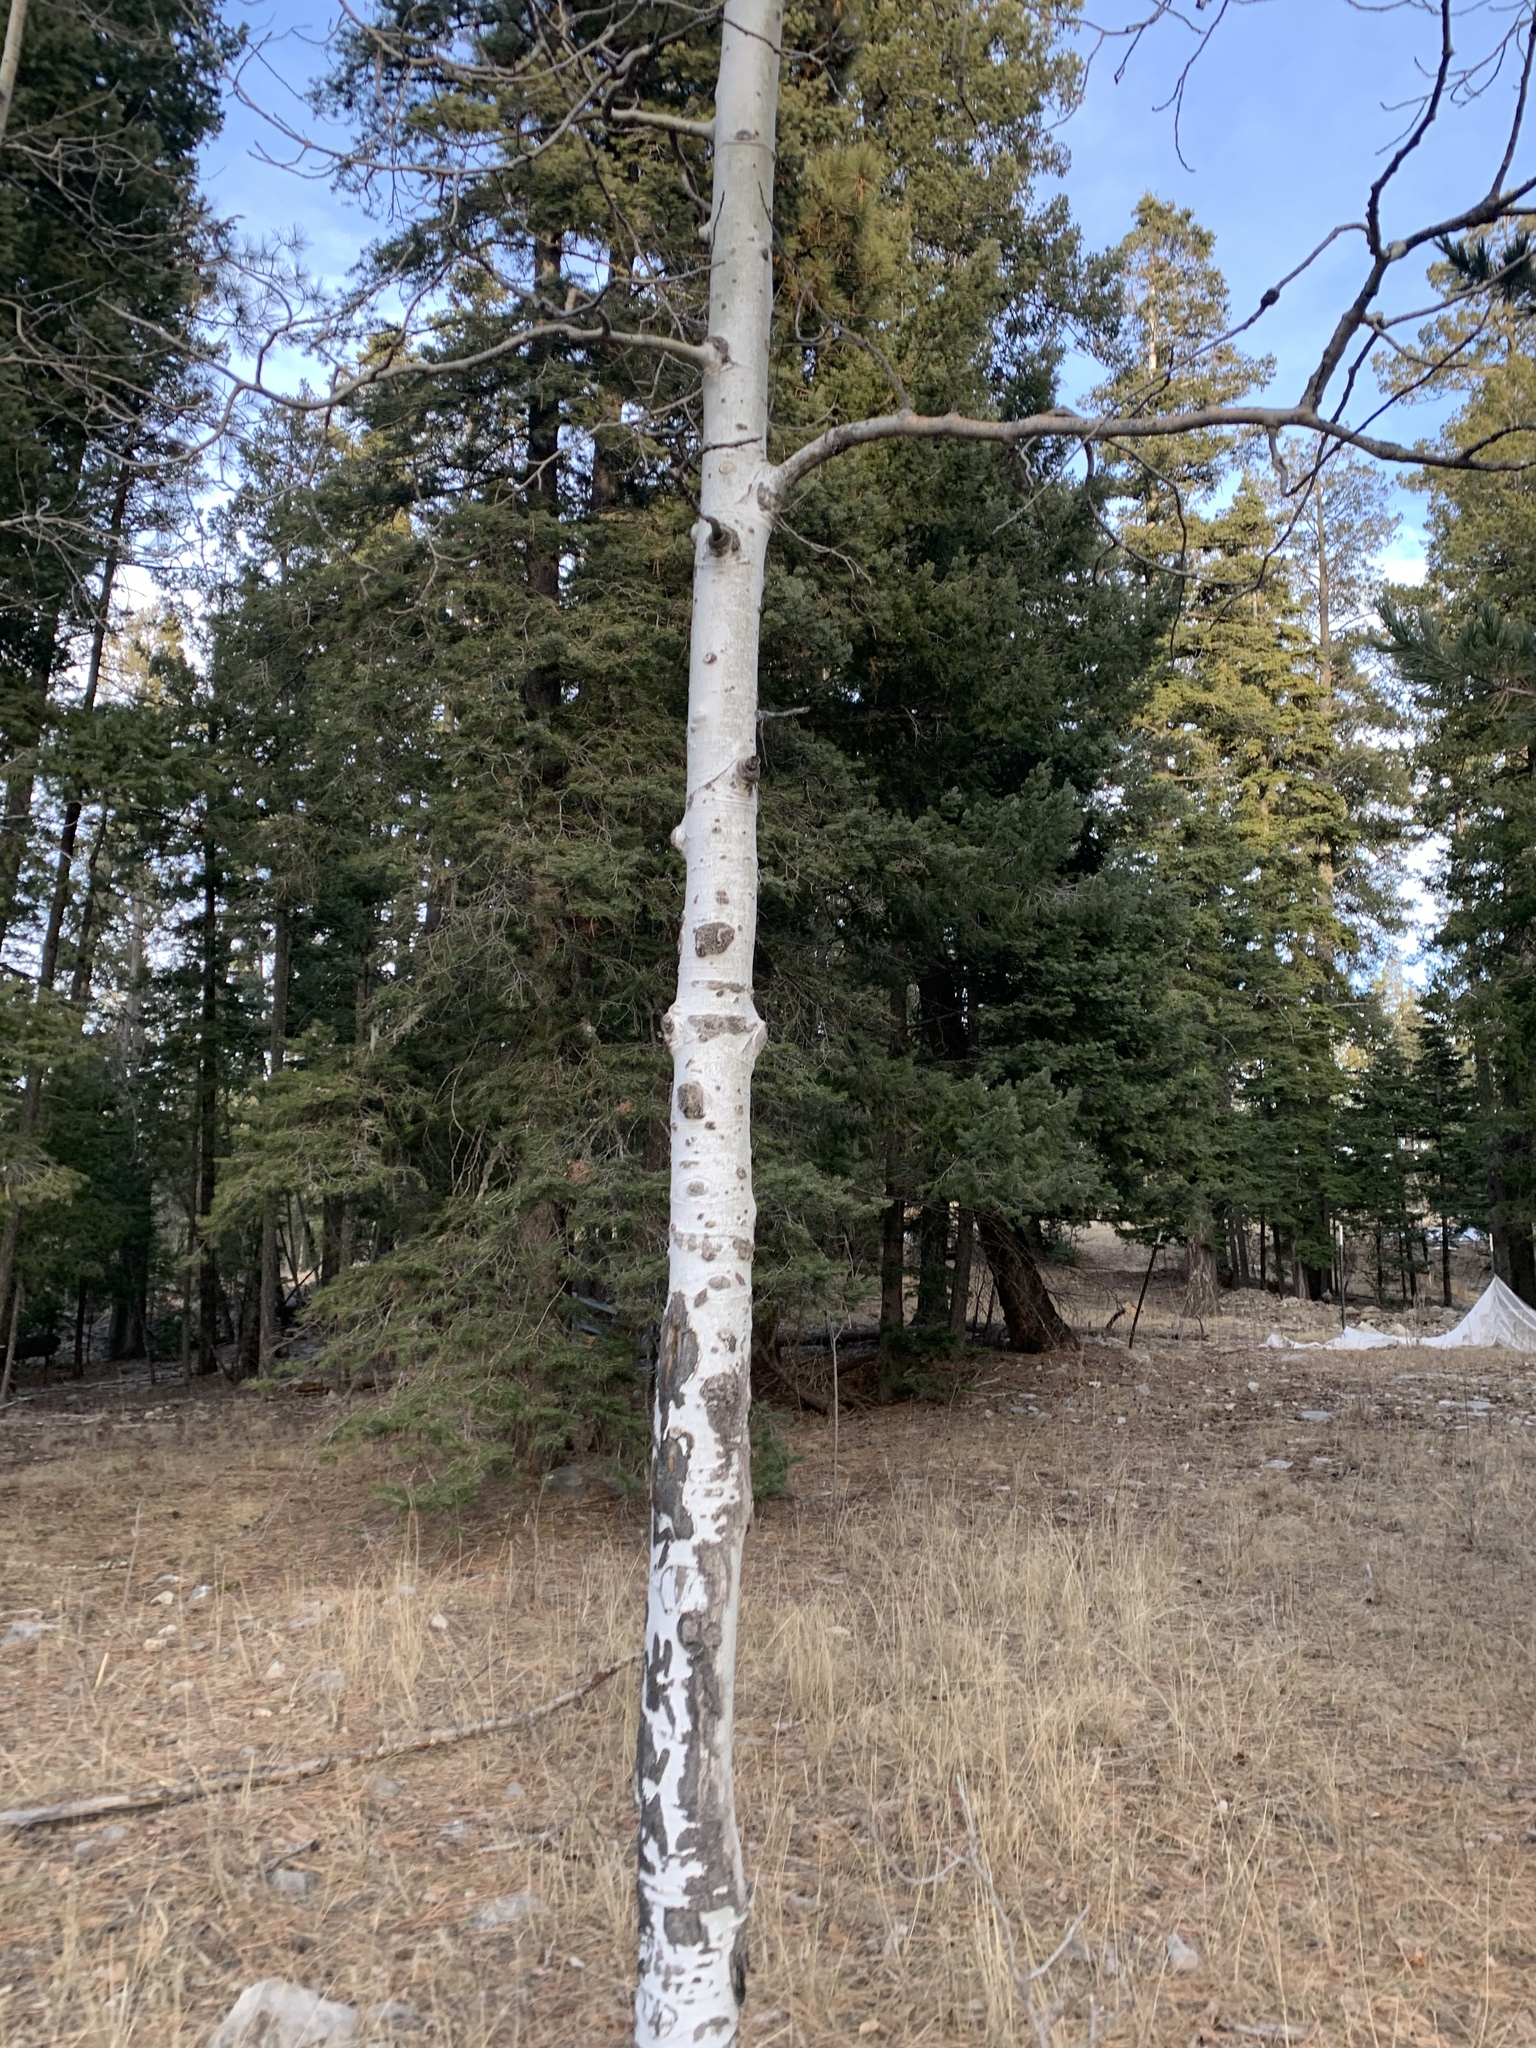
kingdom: Plantae
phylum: Tracheophyta
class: Magnoliopsida
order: Malpighiales
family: Salicaceae
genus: Populus
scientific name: Populus tremuloides
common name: Quaking aspen
